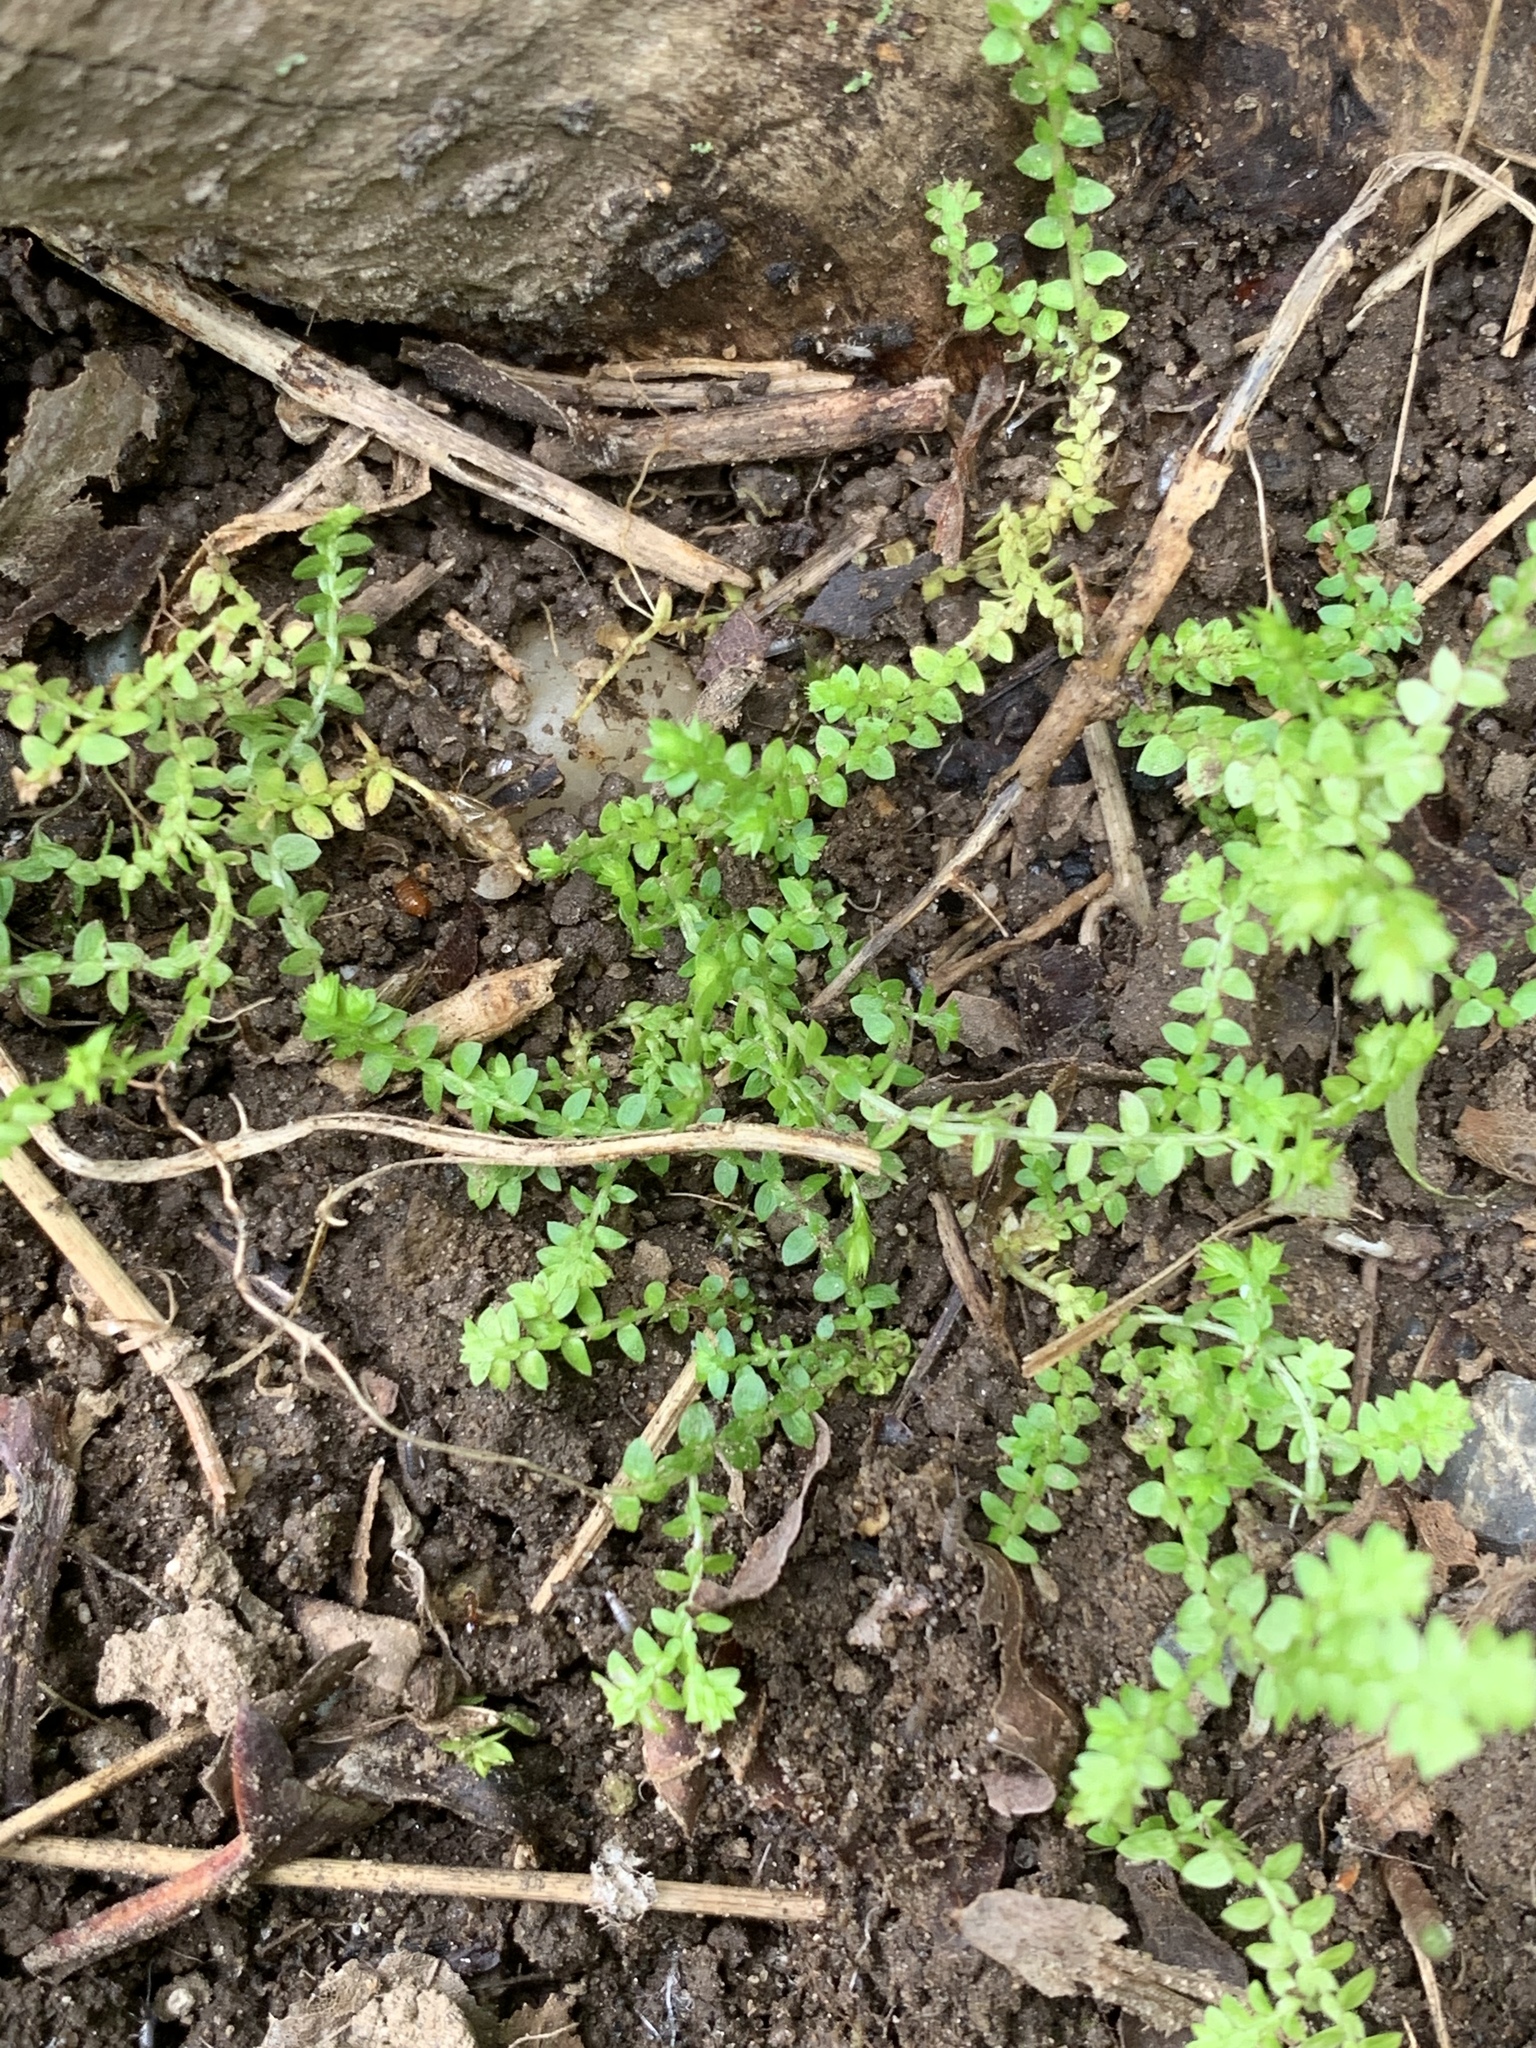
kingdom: Plantae
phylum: Bryophyta
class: Bryopsida
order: Bryales
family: Mniaceae
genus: Plagiomnium
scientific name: Plagiomnium cuspidatum
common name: Woodsy leafy moss
